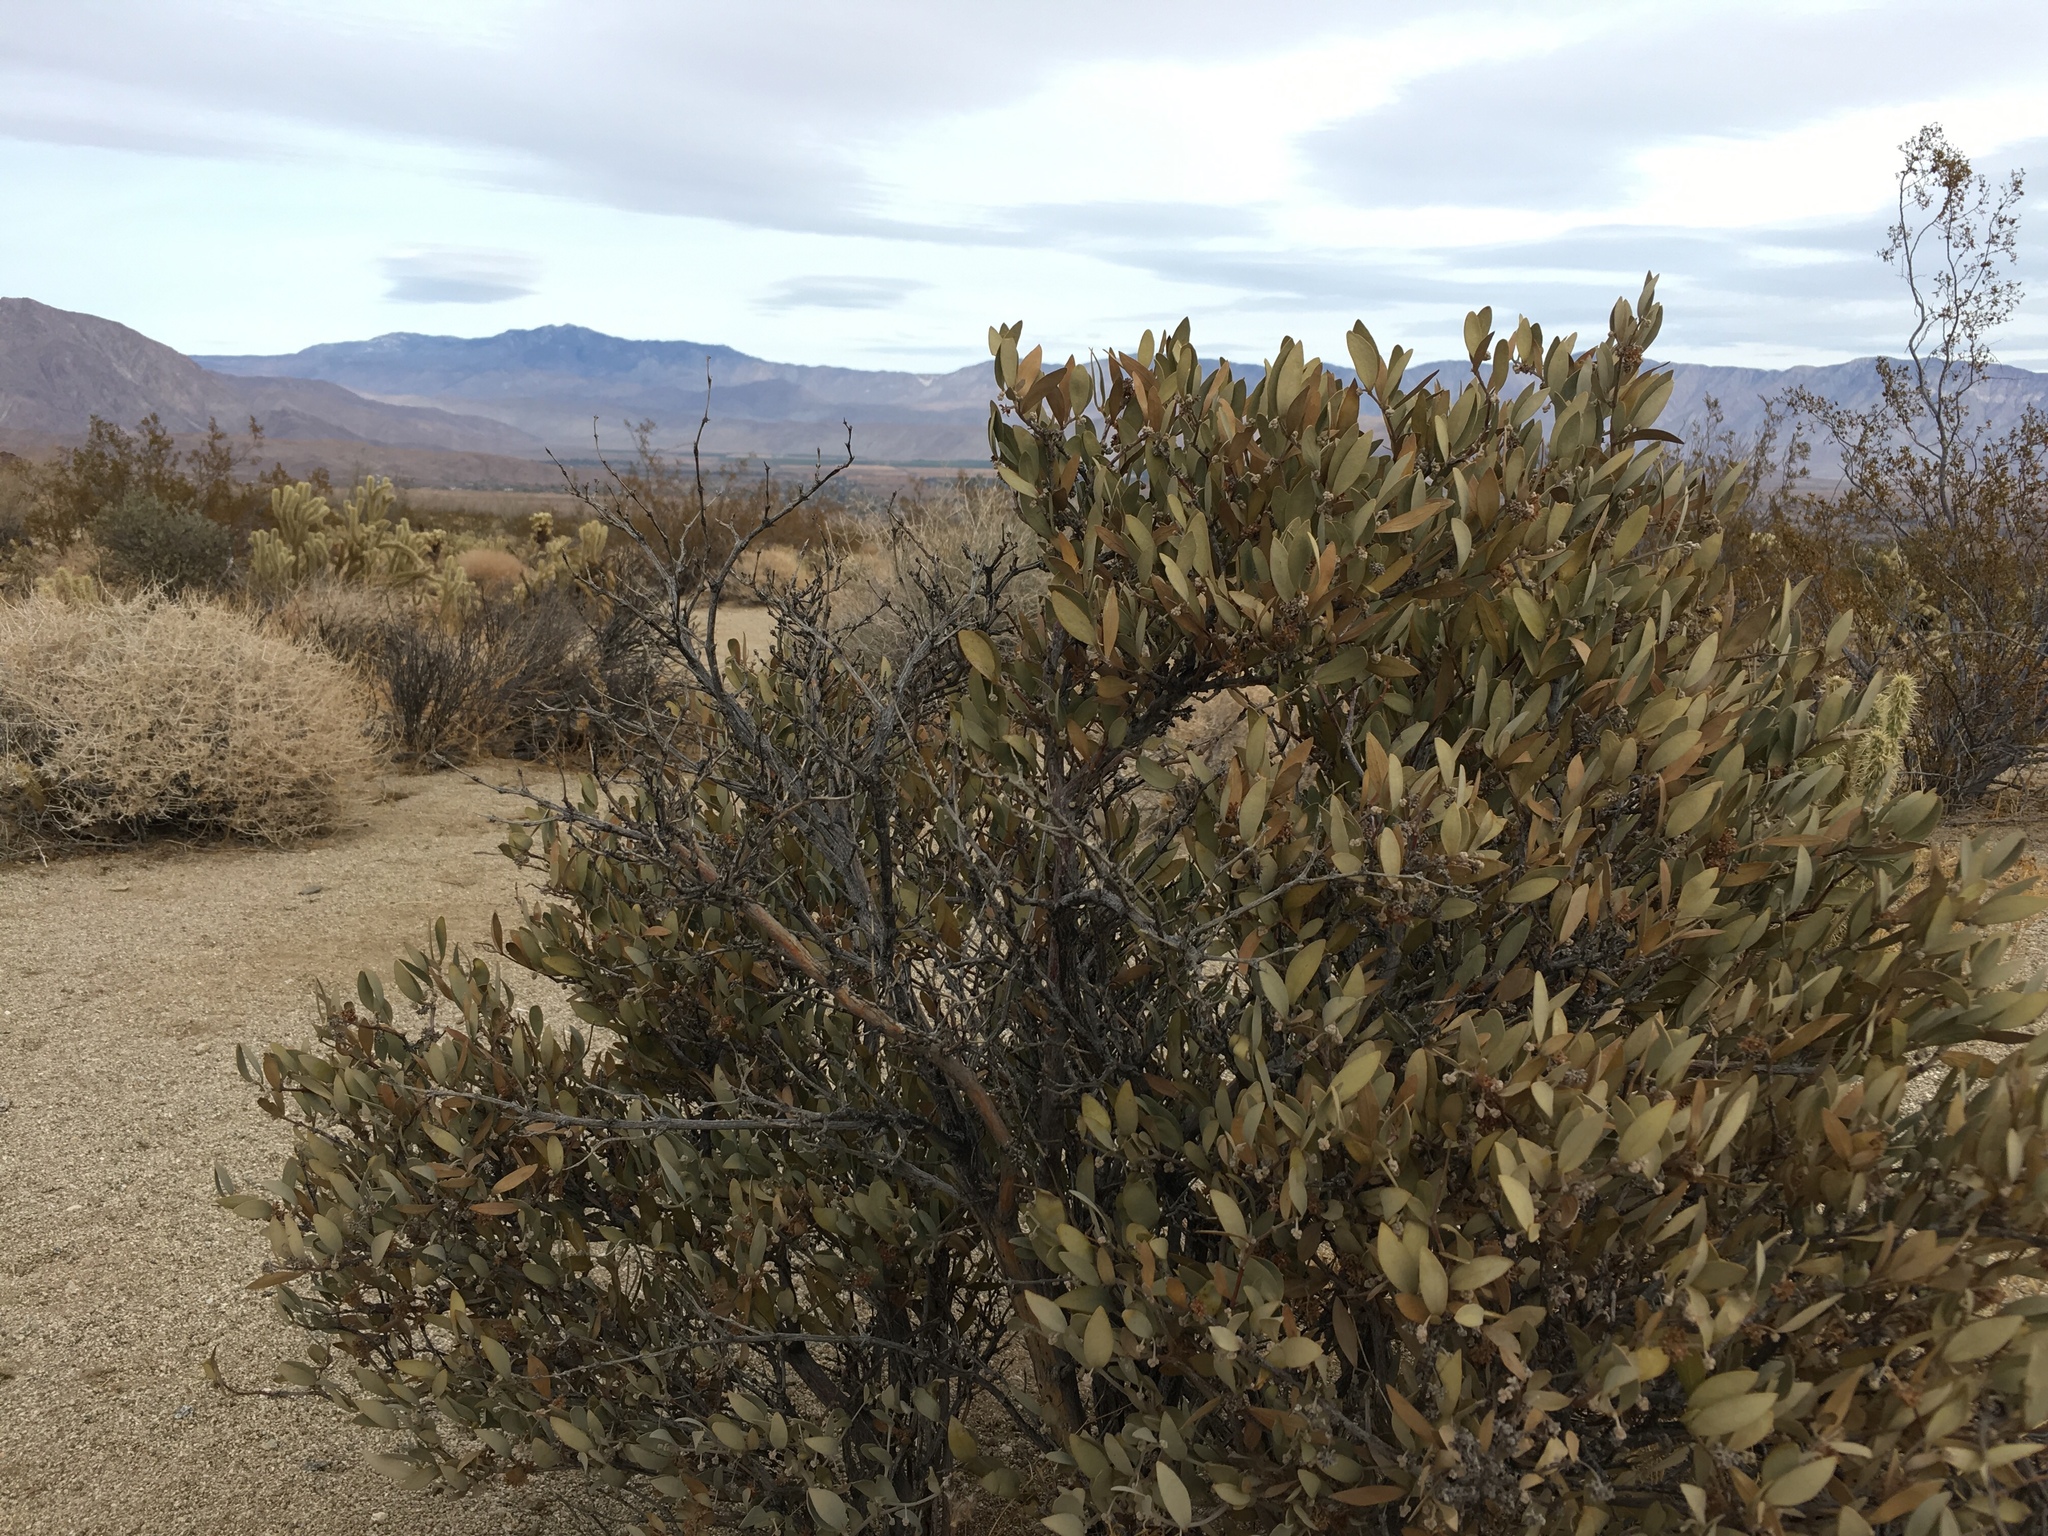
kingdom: Plantae
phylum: Tracheophyta
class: Magnoliopsida
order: Caryophyllales
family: Simmondsiaceae
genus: Simmondsia
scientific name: Simmondsia chinensis
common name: Jojoba
